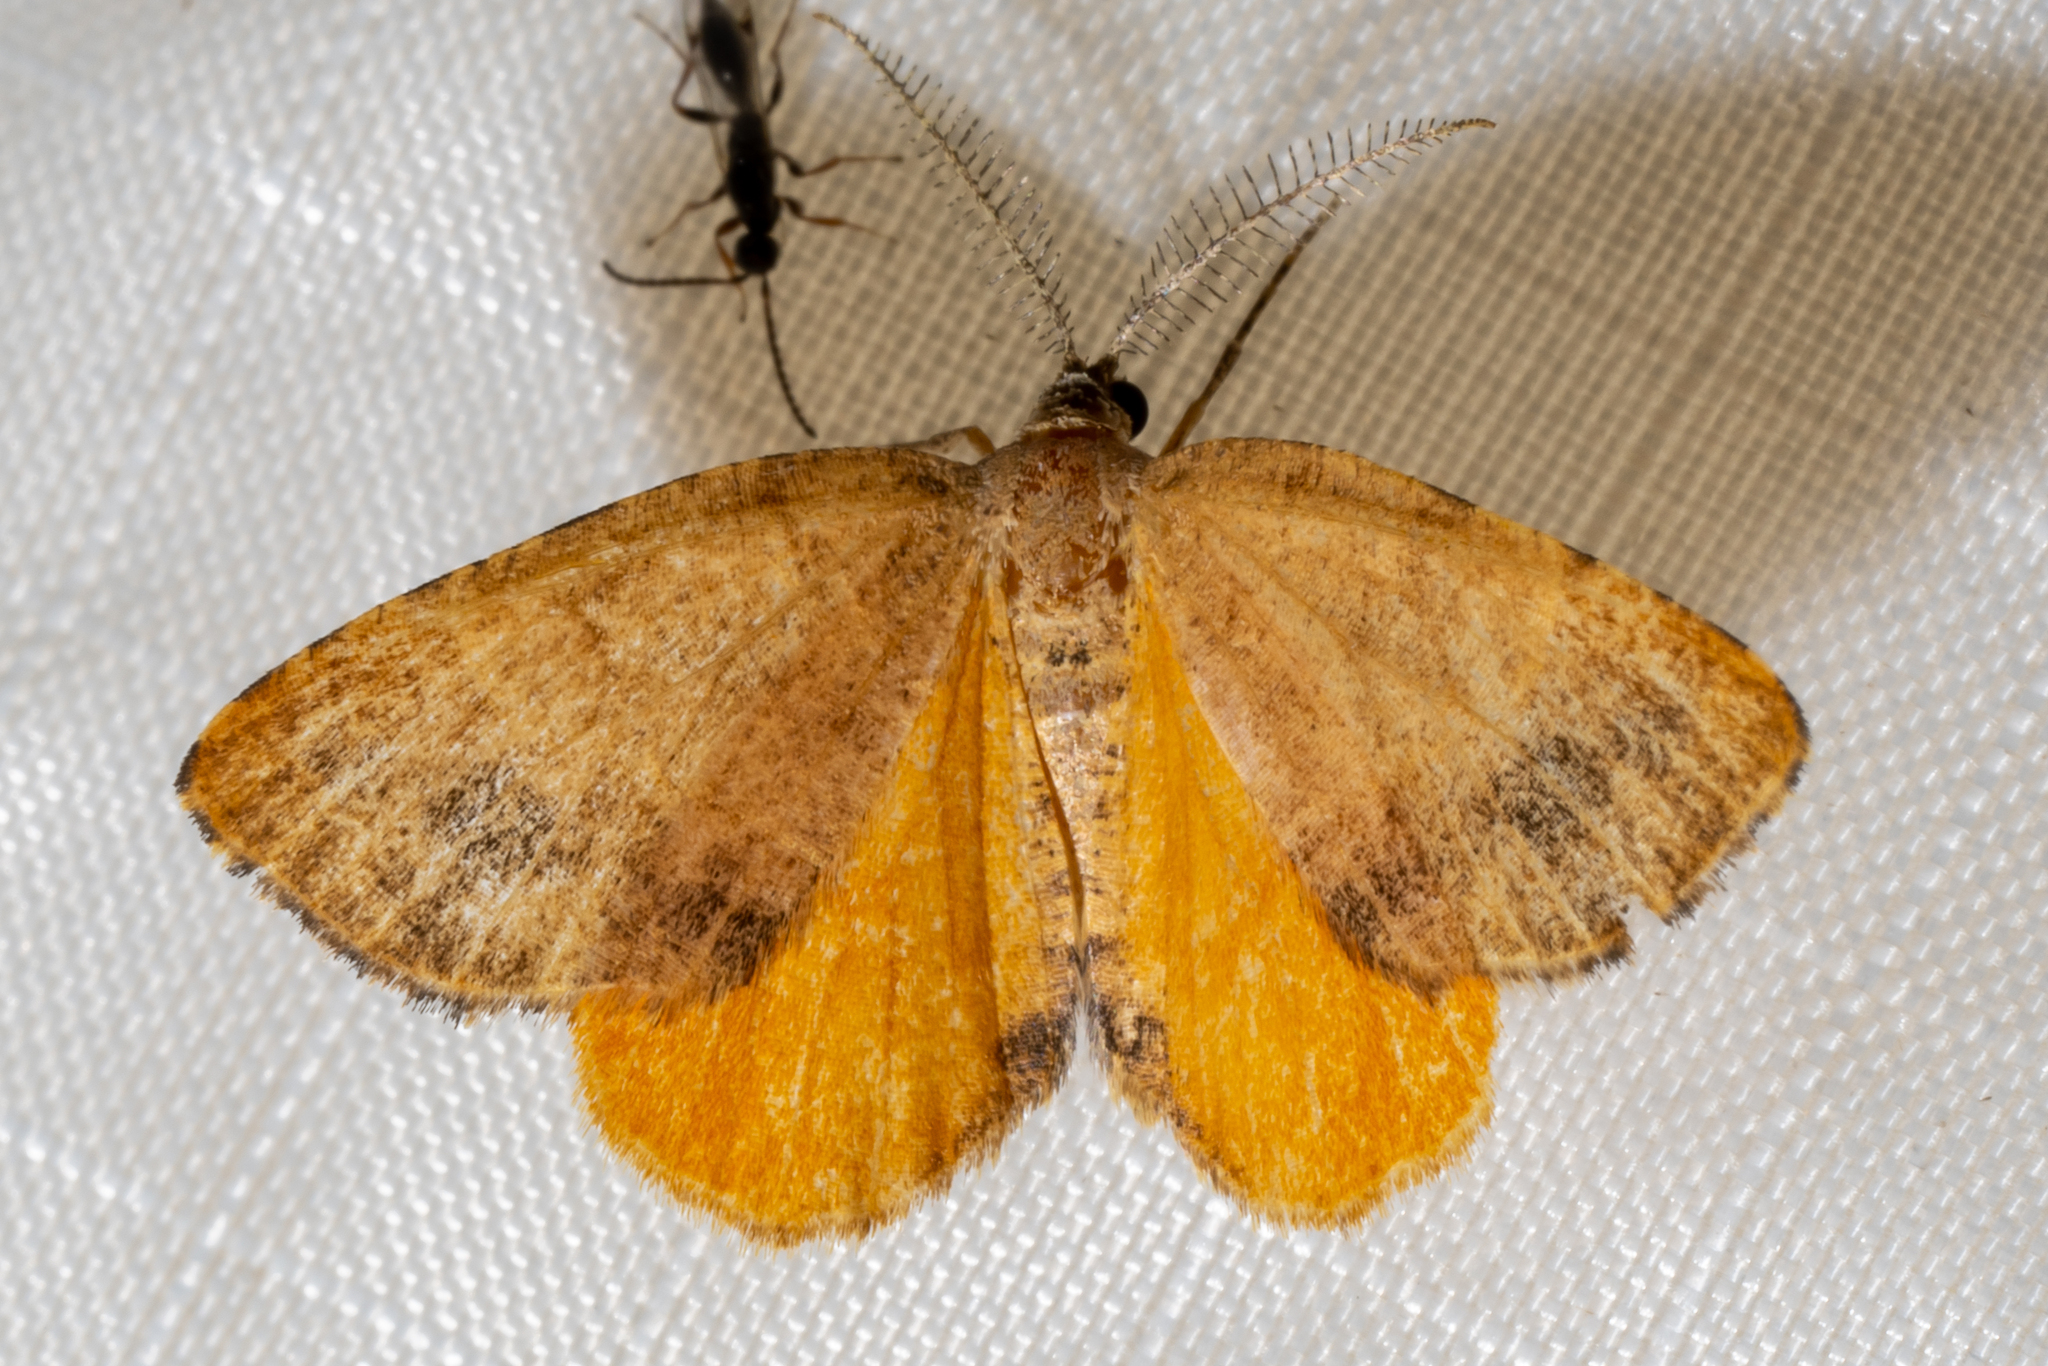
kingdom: Animalia
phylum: Arthropoda
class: Insecta
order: Lepidoptera
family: Geometridae
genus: Mellilla
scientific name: Mellilla xanthometata
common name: Orange wing moth
